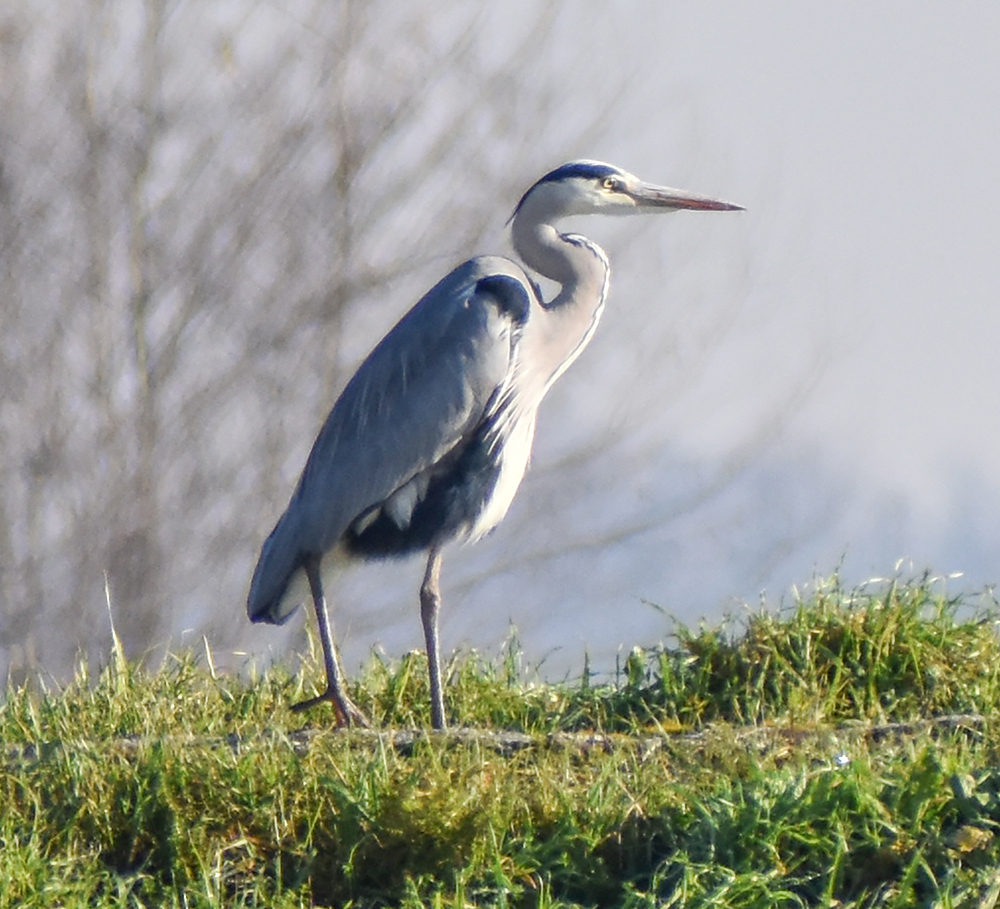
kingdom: Animalia
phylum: Chordata
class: Aves
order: Pelecaniformes
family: Ardeidae
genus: Ardea
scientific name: Ardea cinerea
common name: Grey heron
